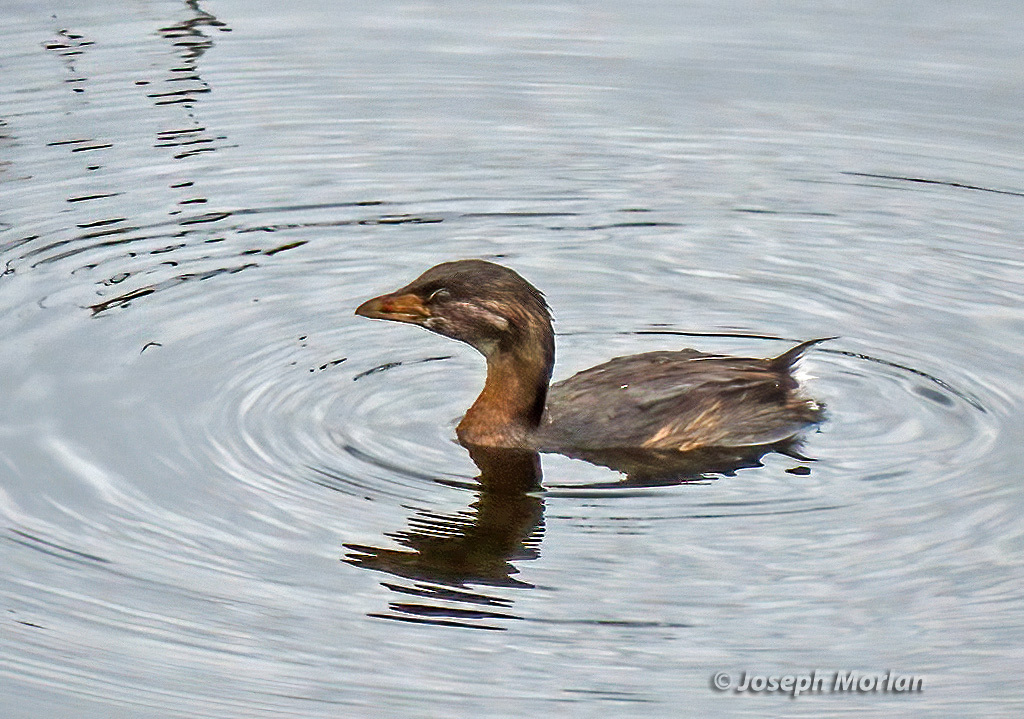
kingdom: Animalia
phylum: Chordata
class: Aves
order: Podicipediformes
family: Podicipedidae
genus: Podilymbus
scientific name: Podilymbus podiceps
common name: Pied-billed grebe
